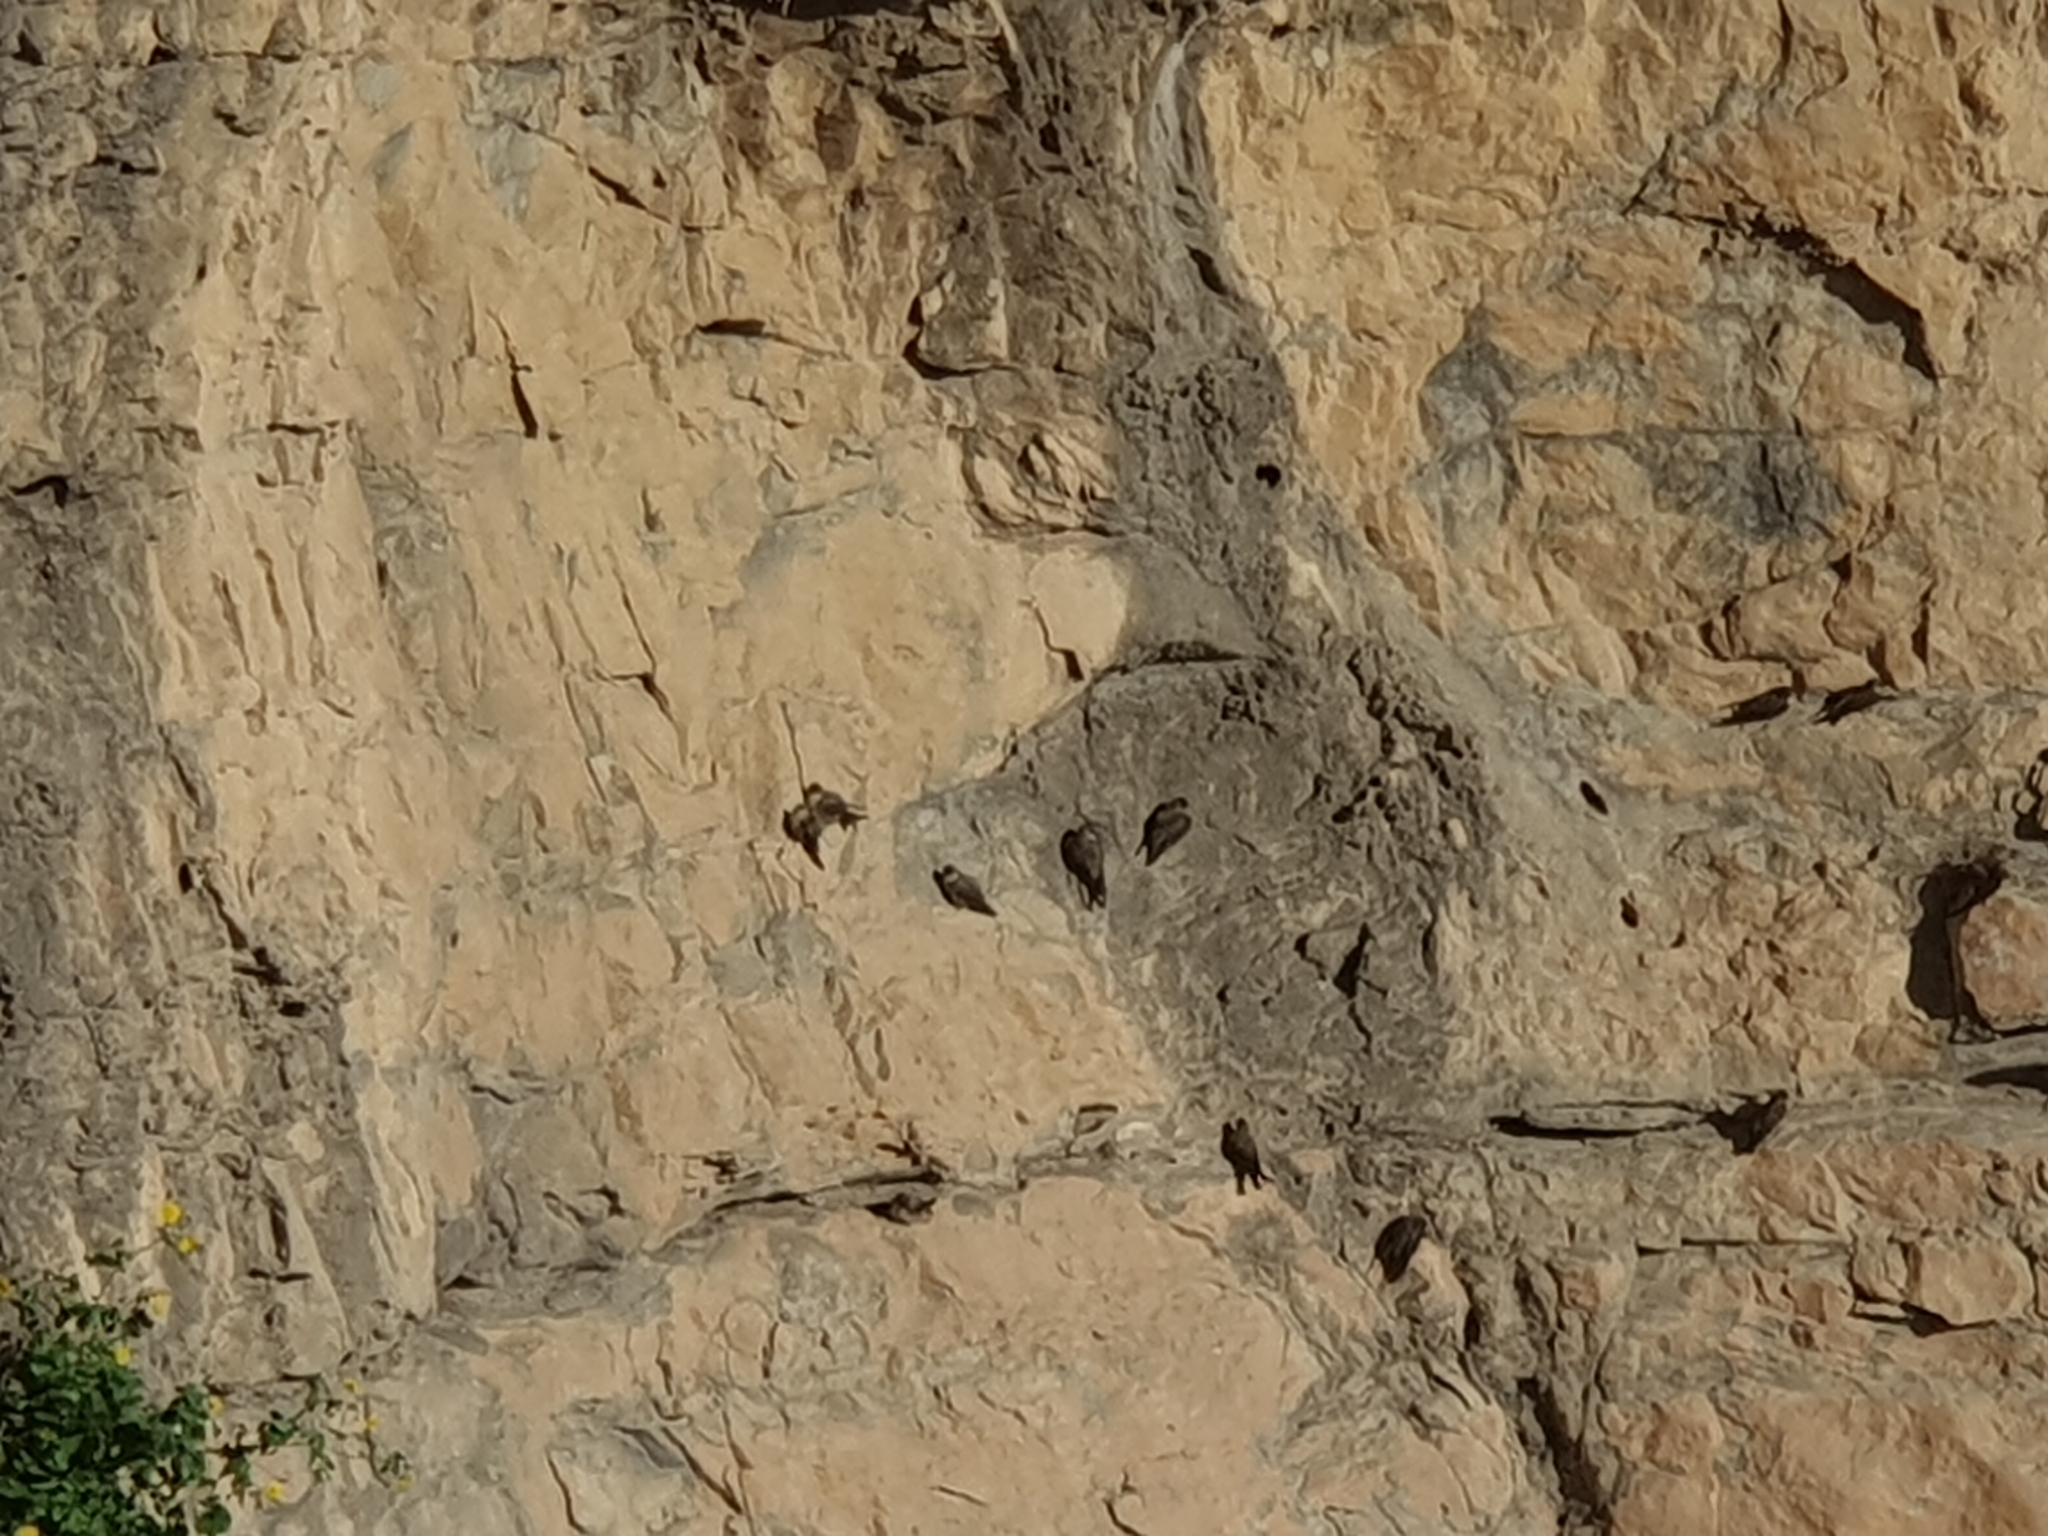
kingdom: Animalia
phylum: Chordata
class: Aves
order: Passeriformes
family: Hirundinidae
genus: Ptyonoprogne
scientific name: Ptyonoprogne rupestris
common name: Eurasian crag martin
